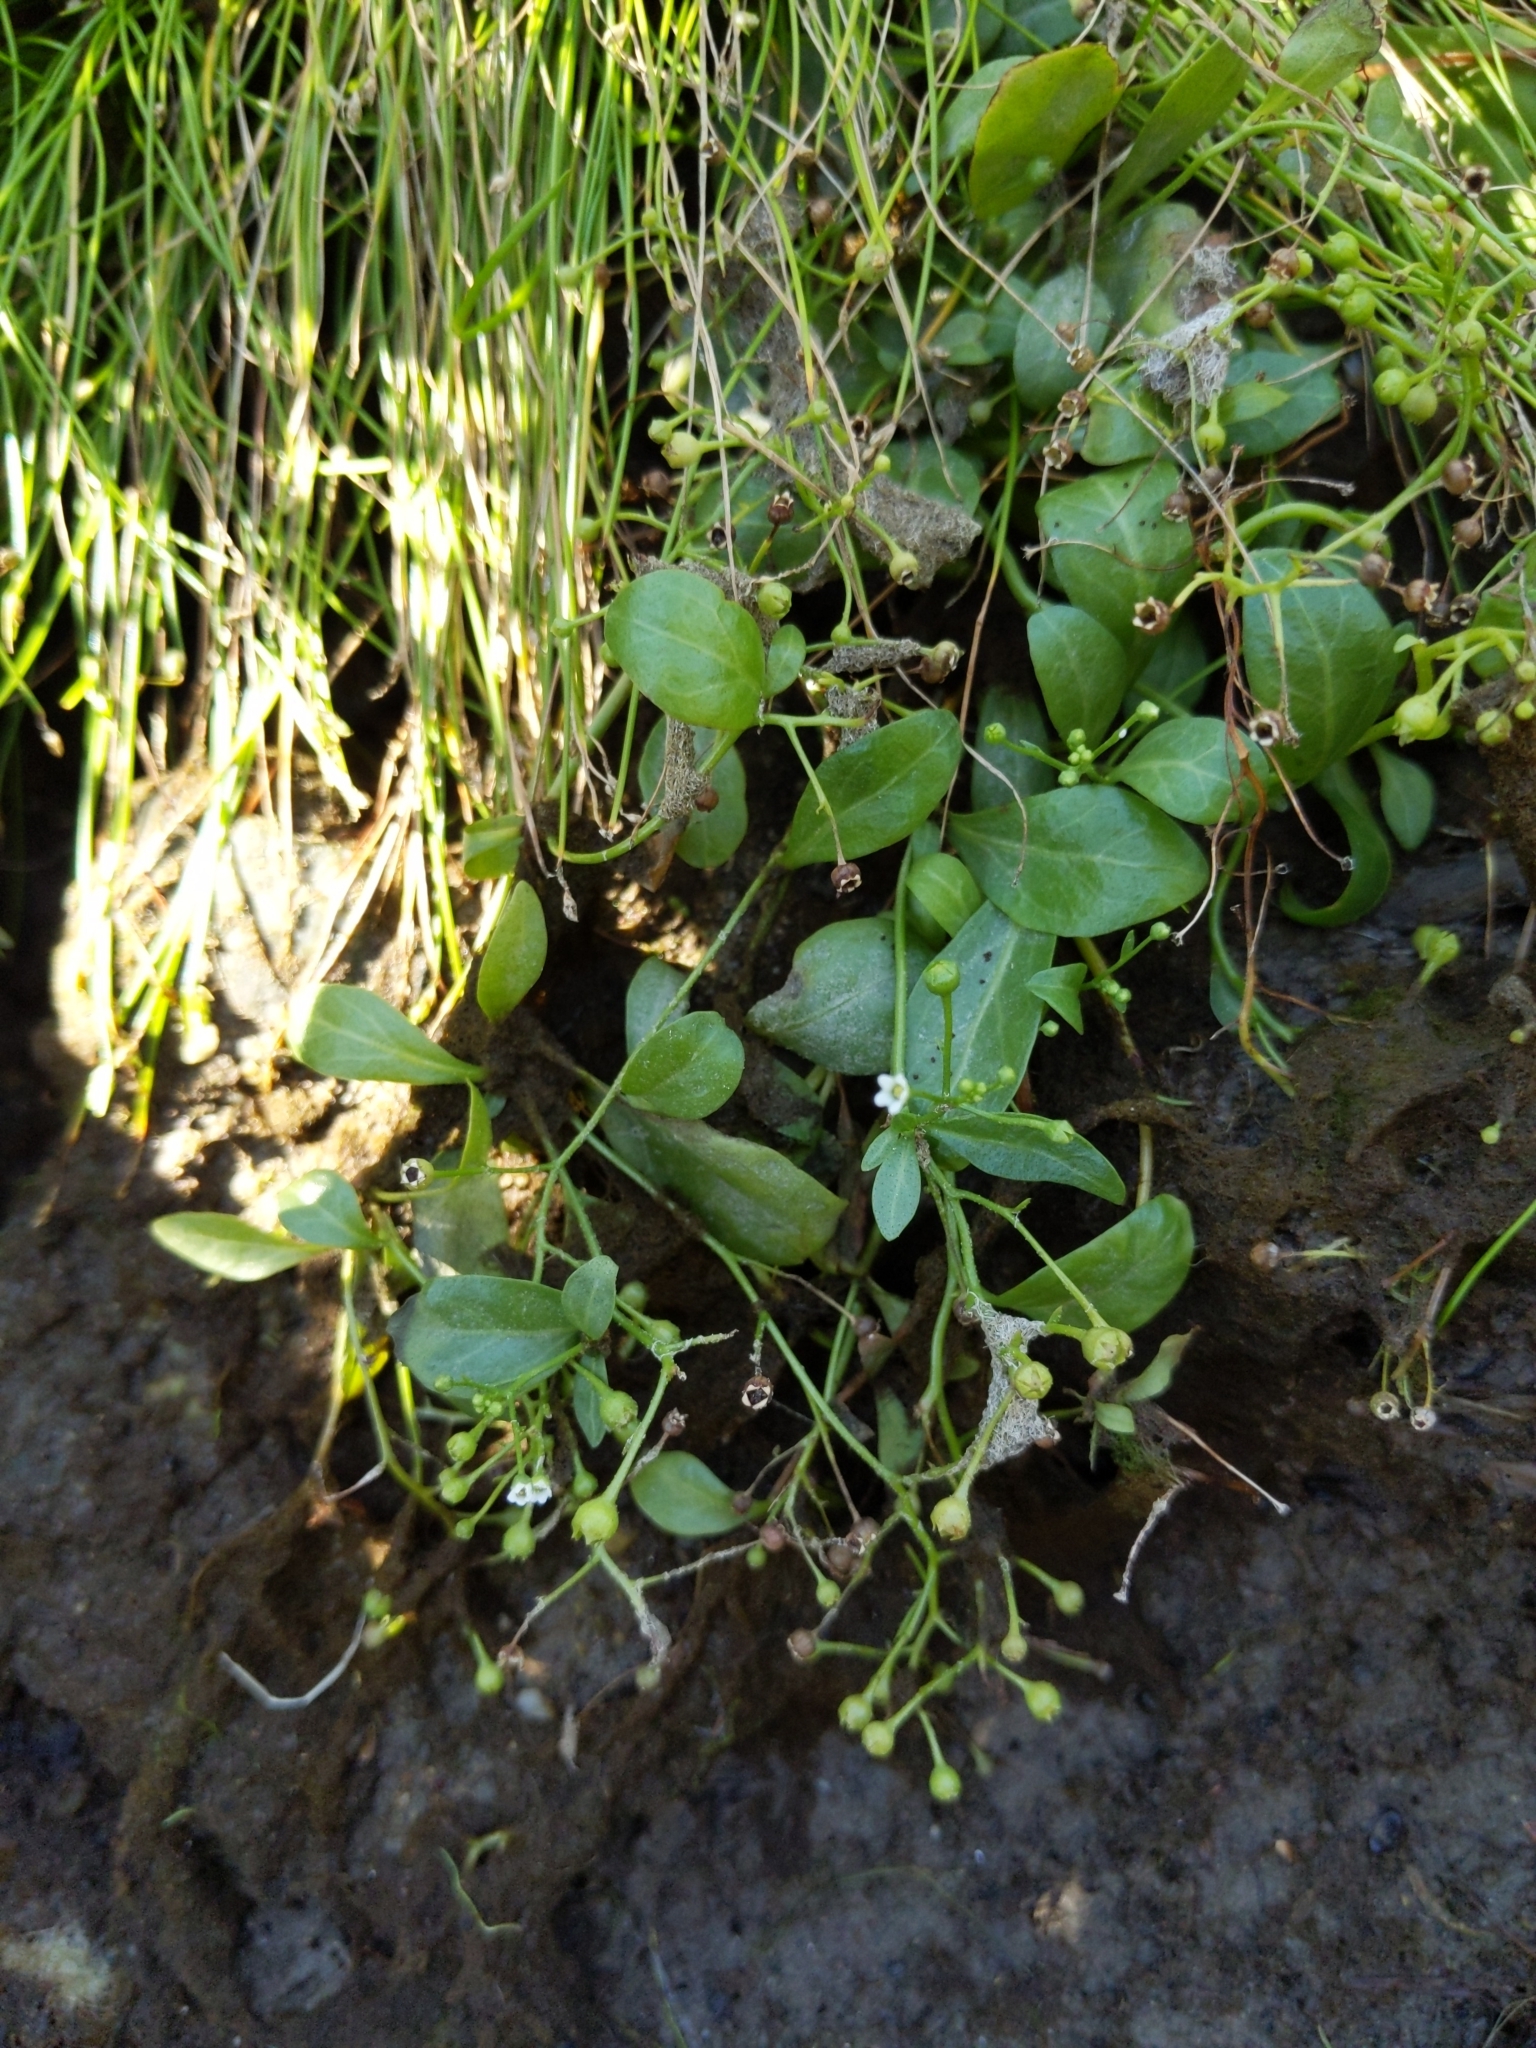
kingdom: Plantae
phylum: Tracheophyta
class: Magnoliopsida
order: Ericales
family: Primulaceae
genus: Samolus
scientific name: Samolus parviflorus
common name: False water pimpernel
